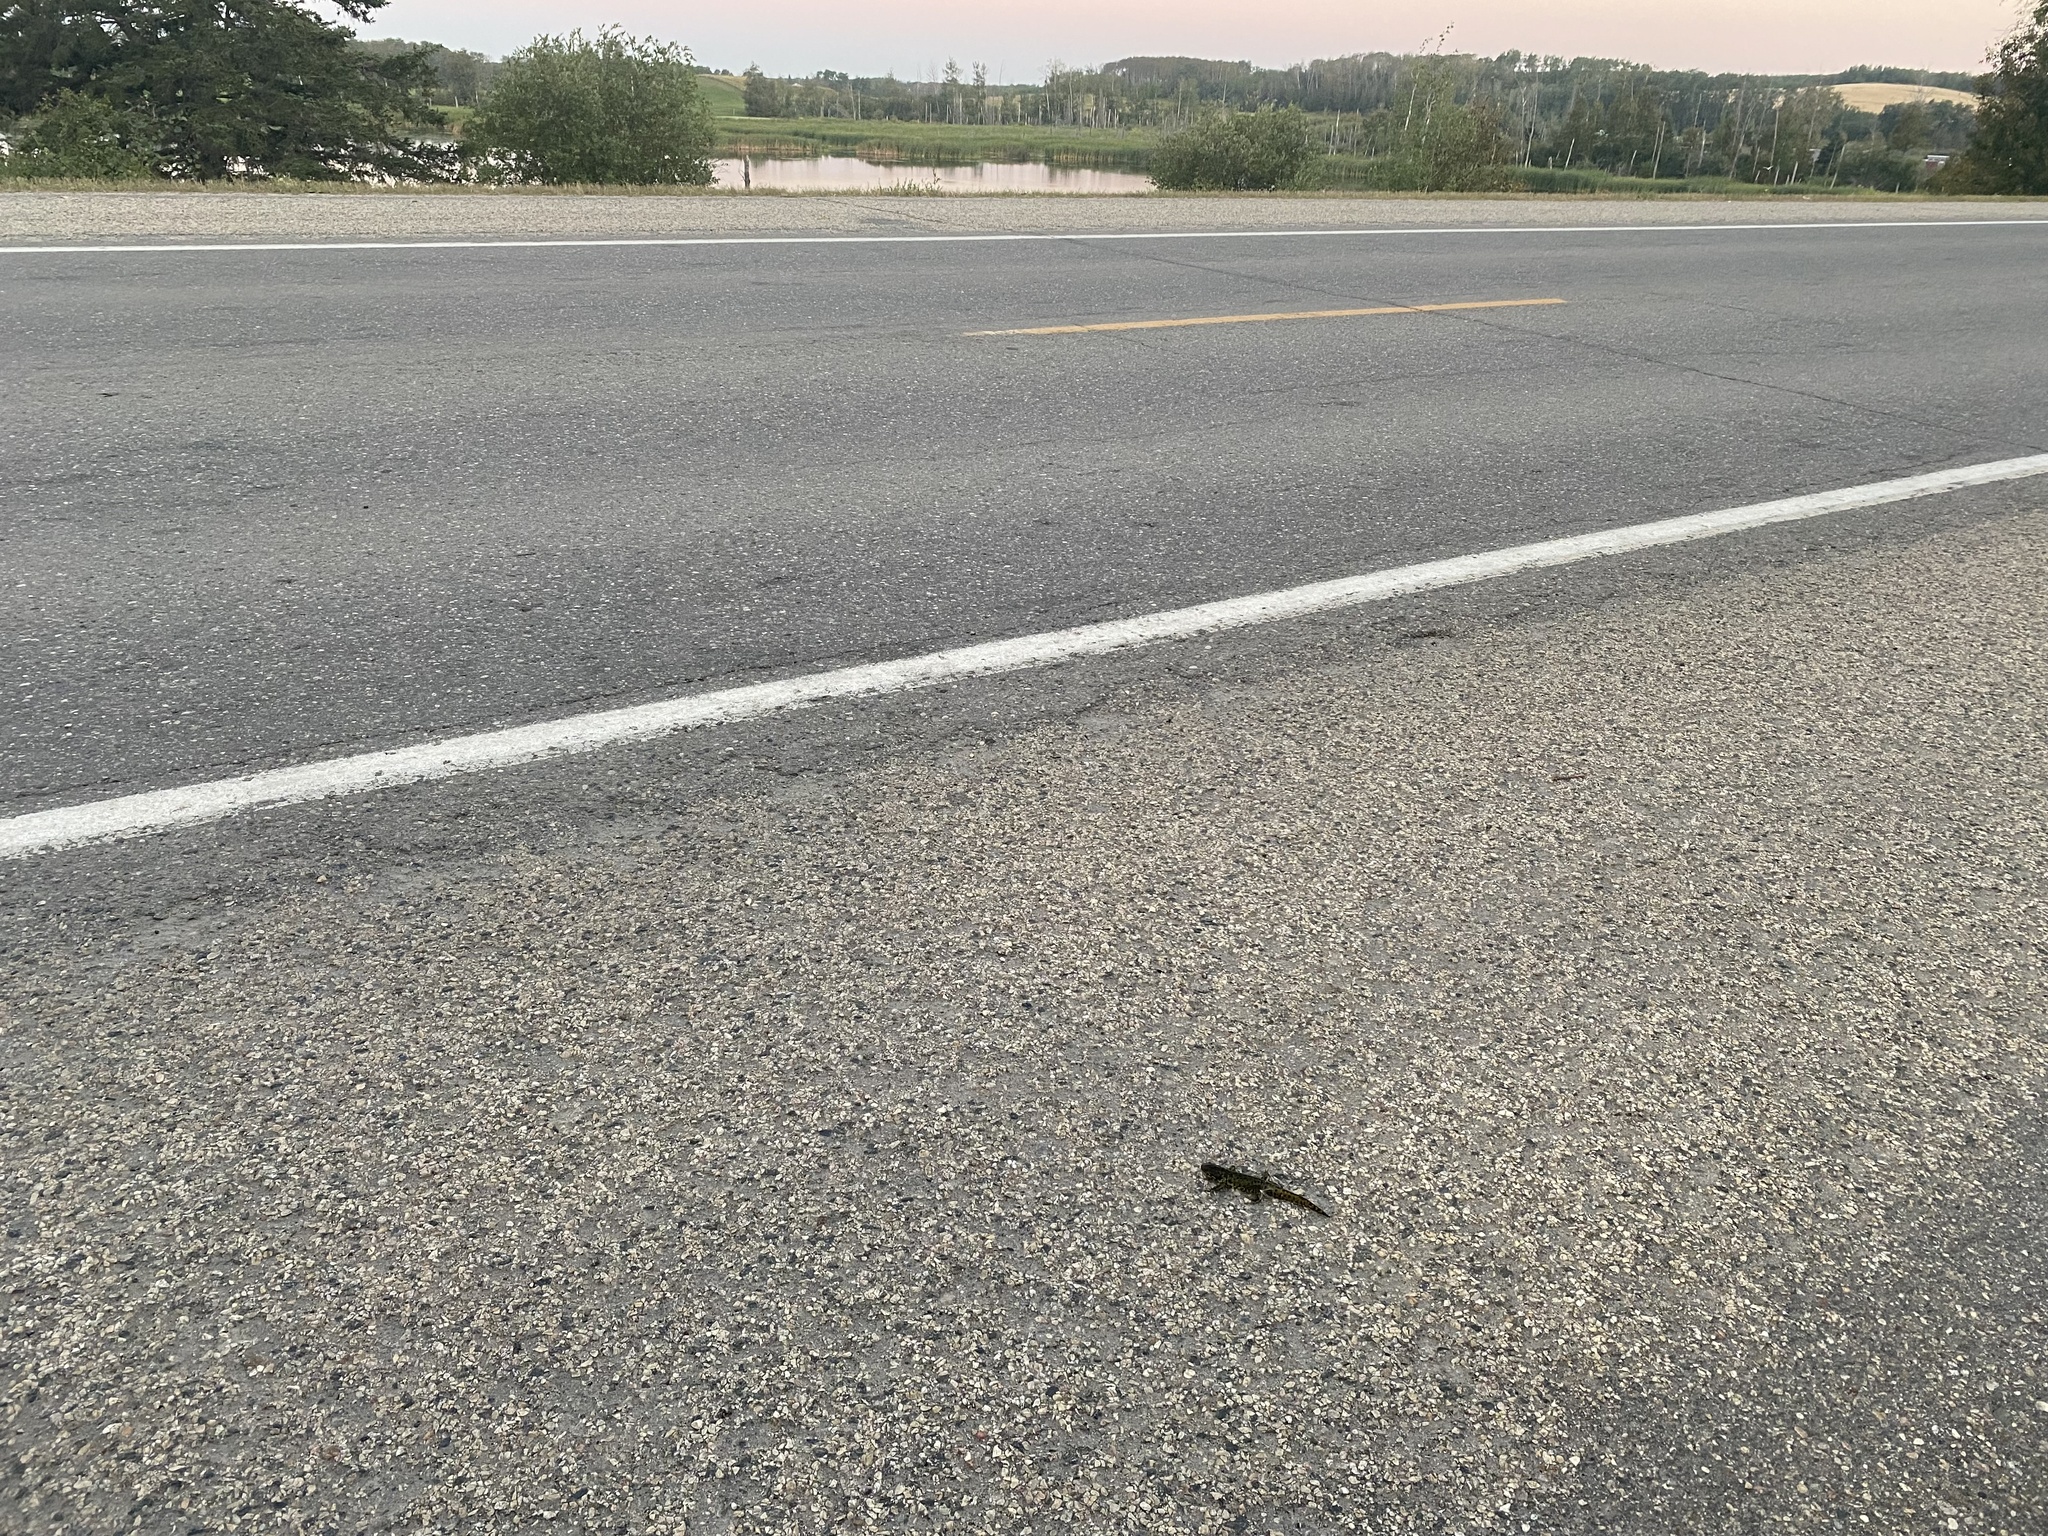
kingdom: Animalia
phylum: Chordata
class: Amphibia
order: Caudata
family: Ambystomatidae
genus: Ambystoma
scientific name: Ambystoma mavortium
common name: Western tiger salamander
